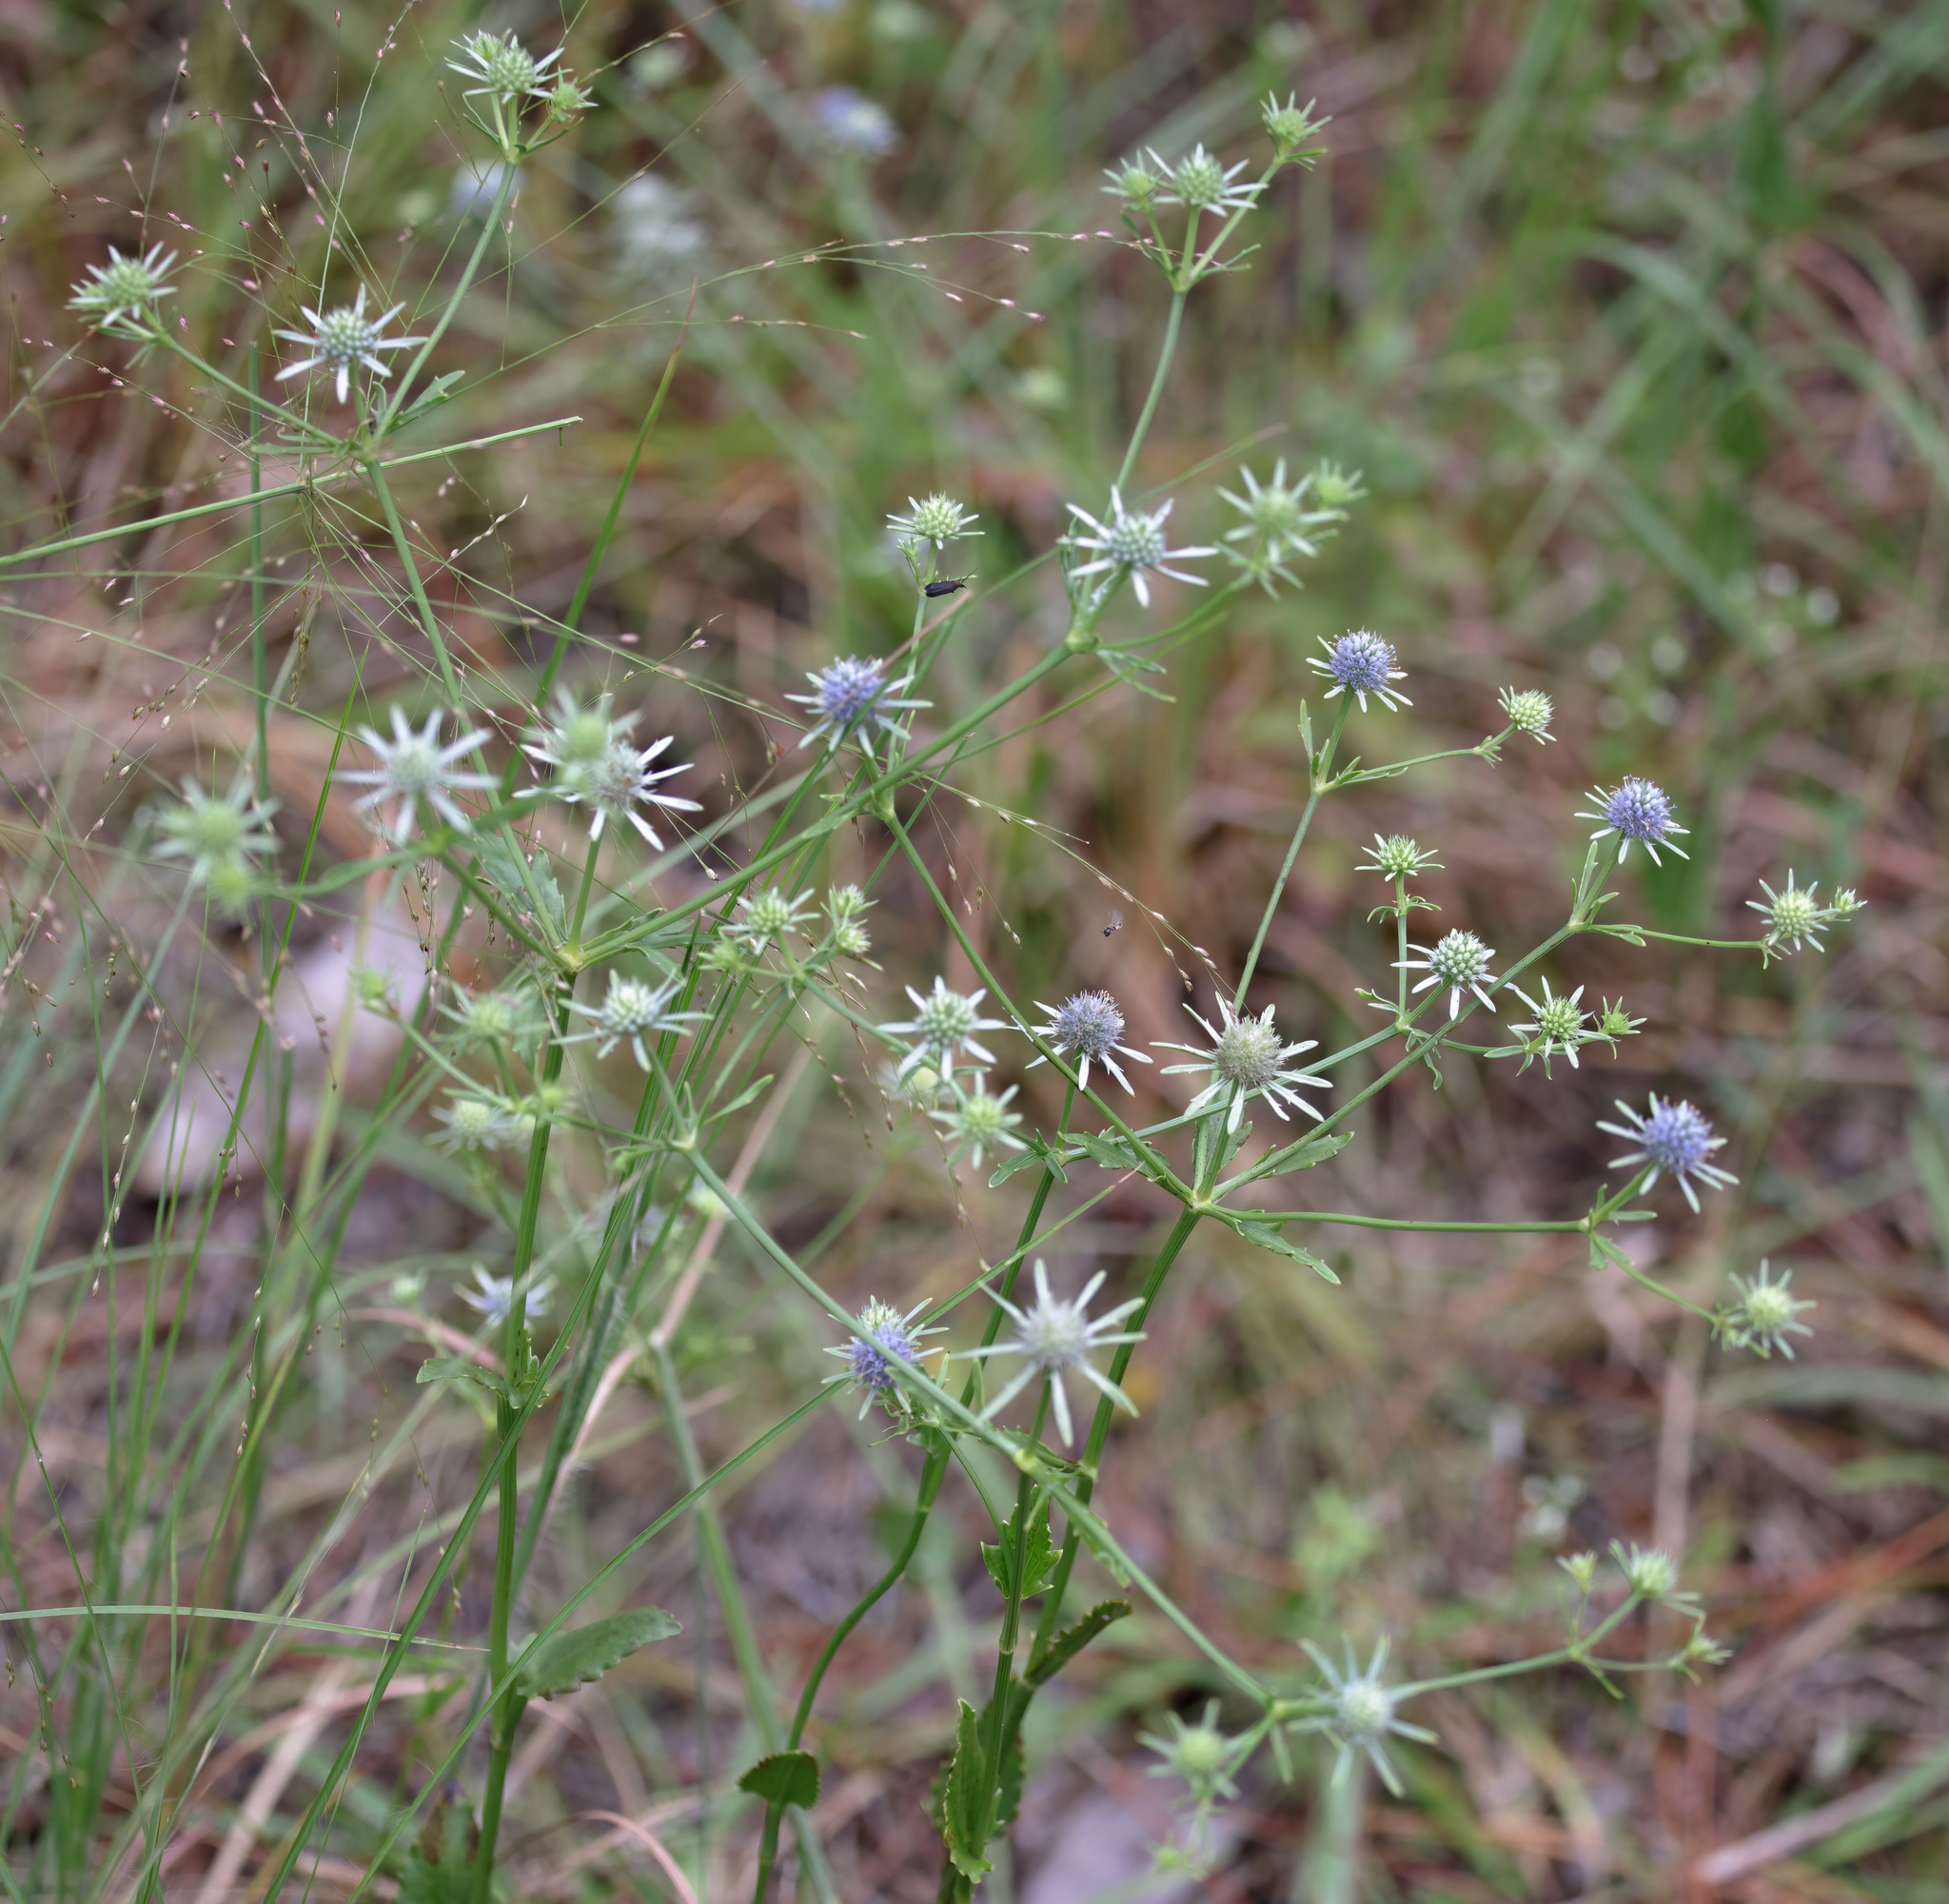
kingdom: Plantae
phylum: Tracheophyta
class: Magnoliopsida
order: Apiales
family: Apiaceae
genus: Eryngium
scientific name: Eryngium integrifolium
